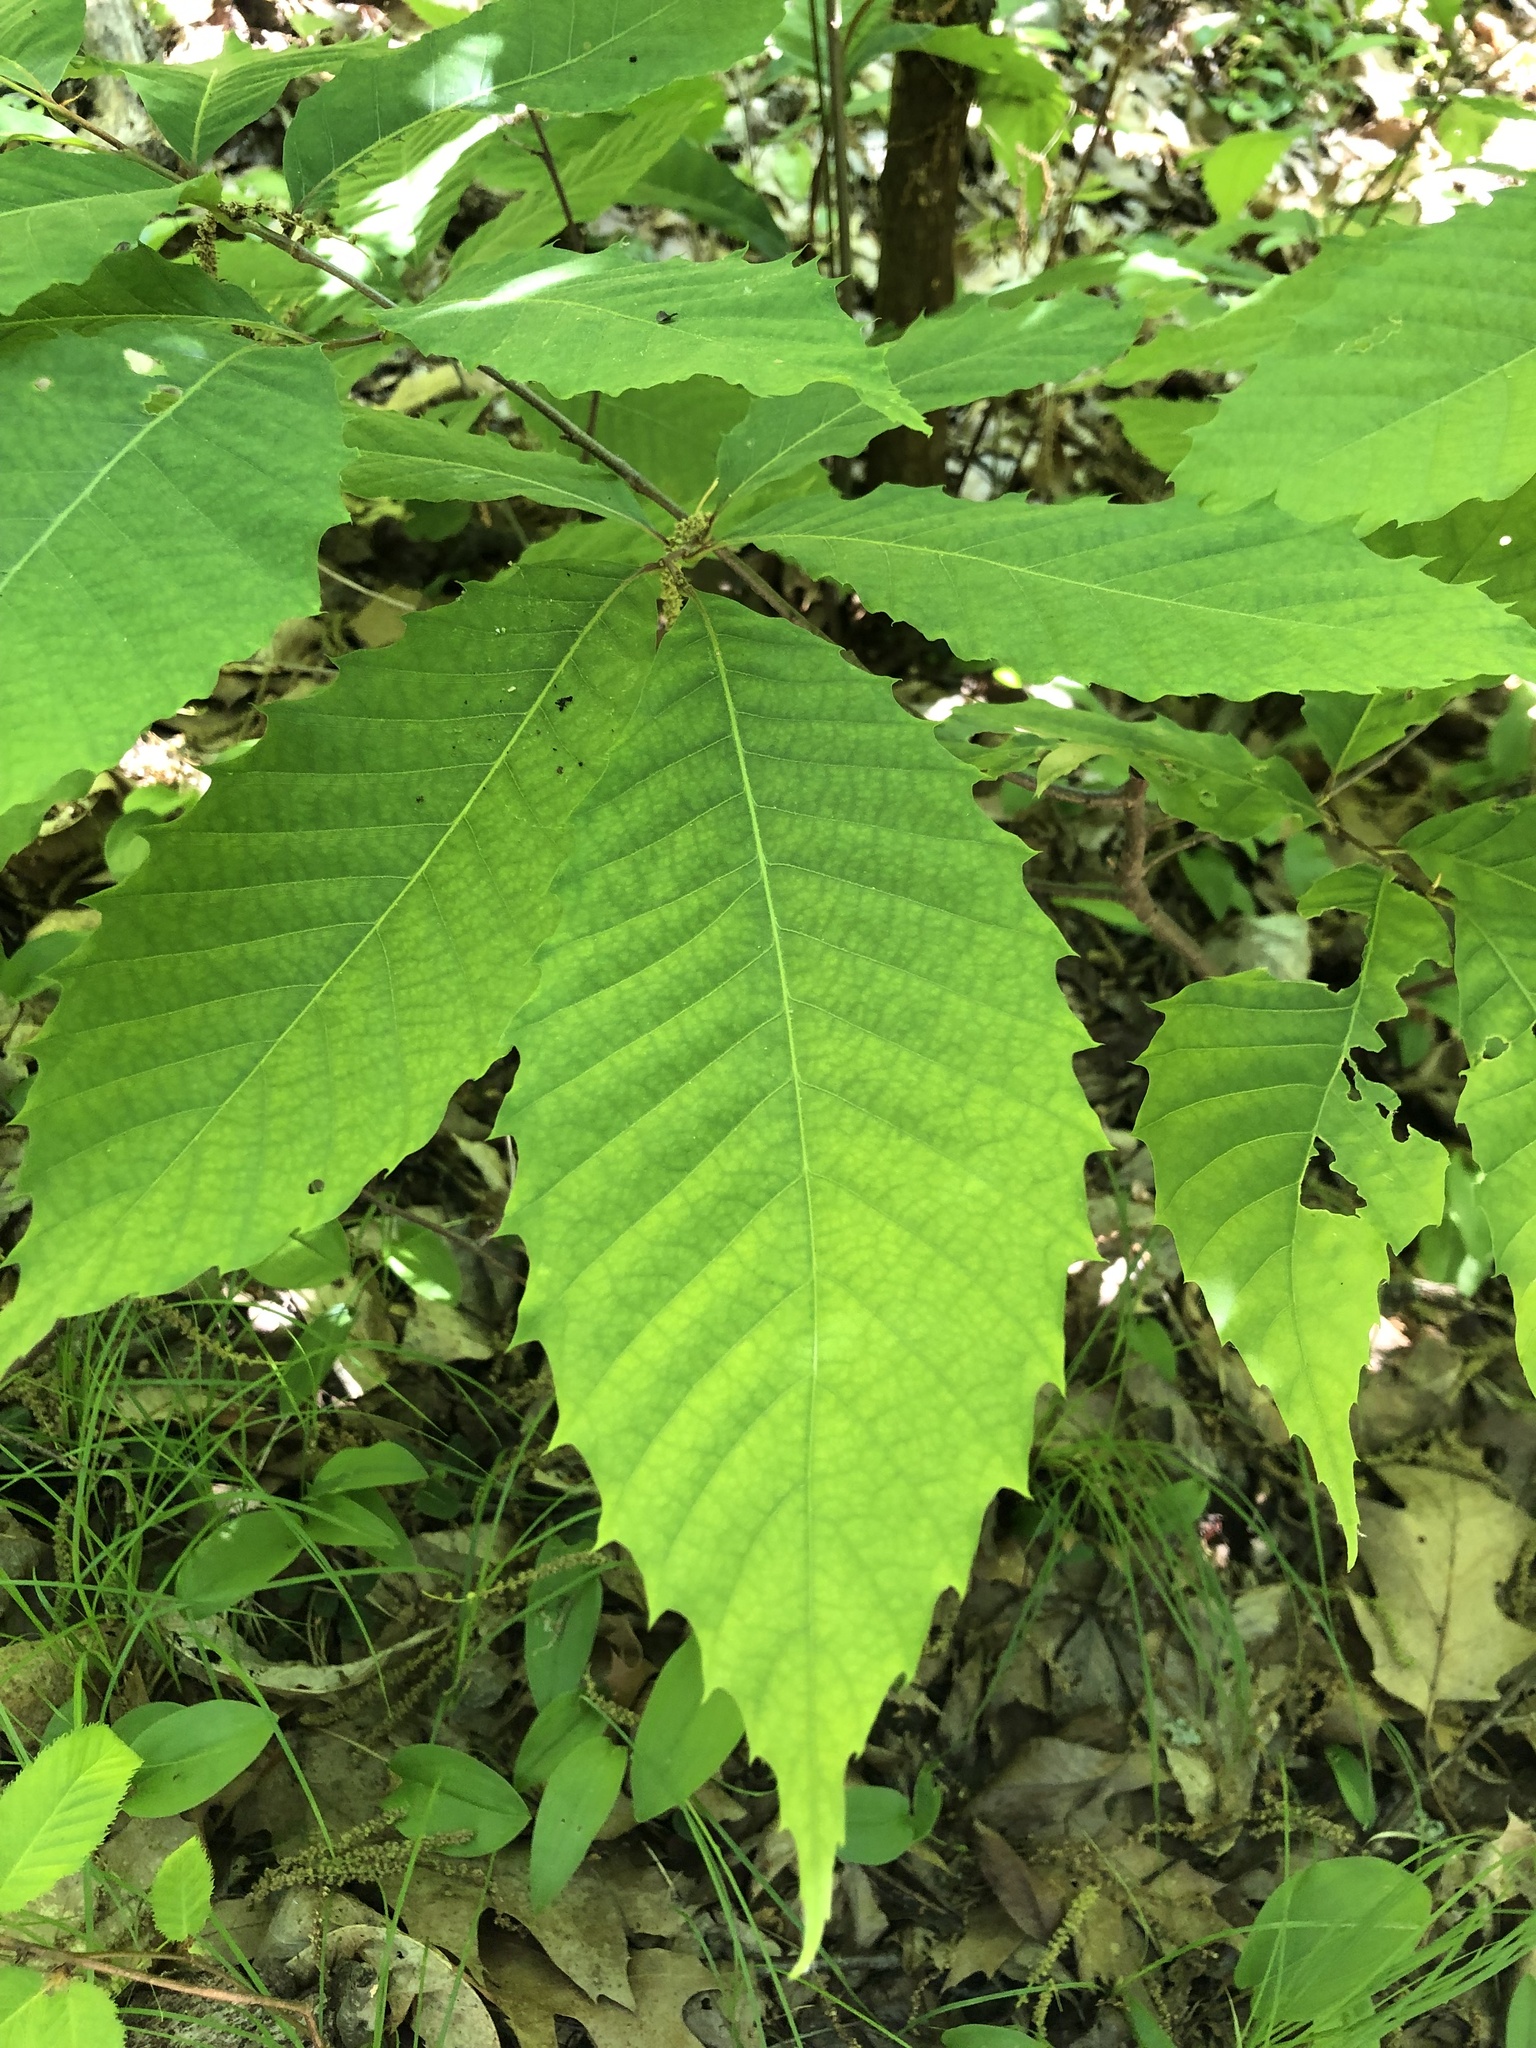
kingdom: Plantae
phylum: Tracheophyta
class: Magnoliopsida
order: Fagales
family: Fagaceae
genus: Castanea
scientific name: Castanea dentata
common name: American chestnut
